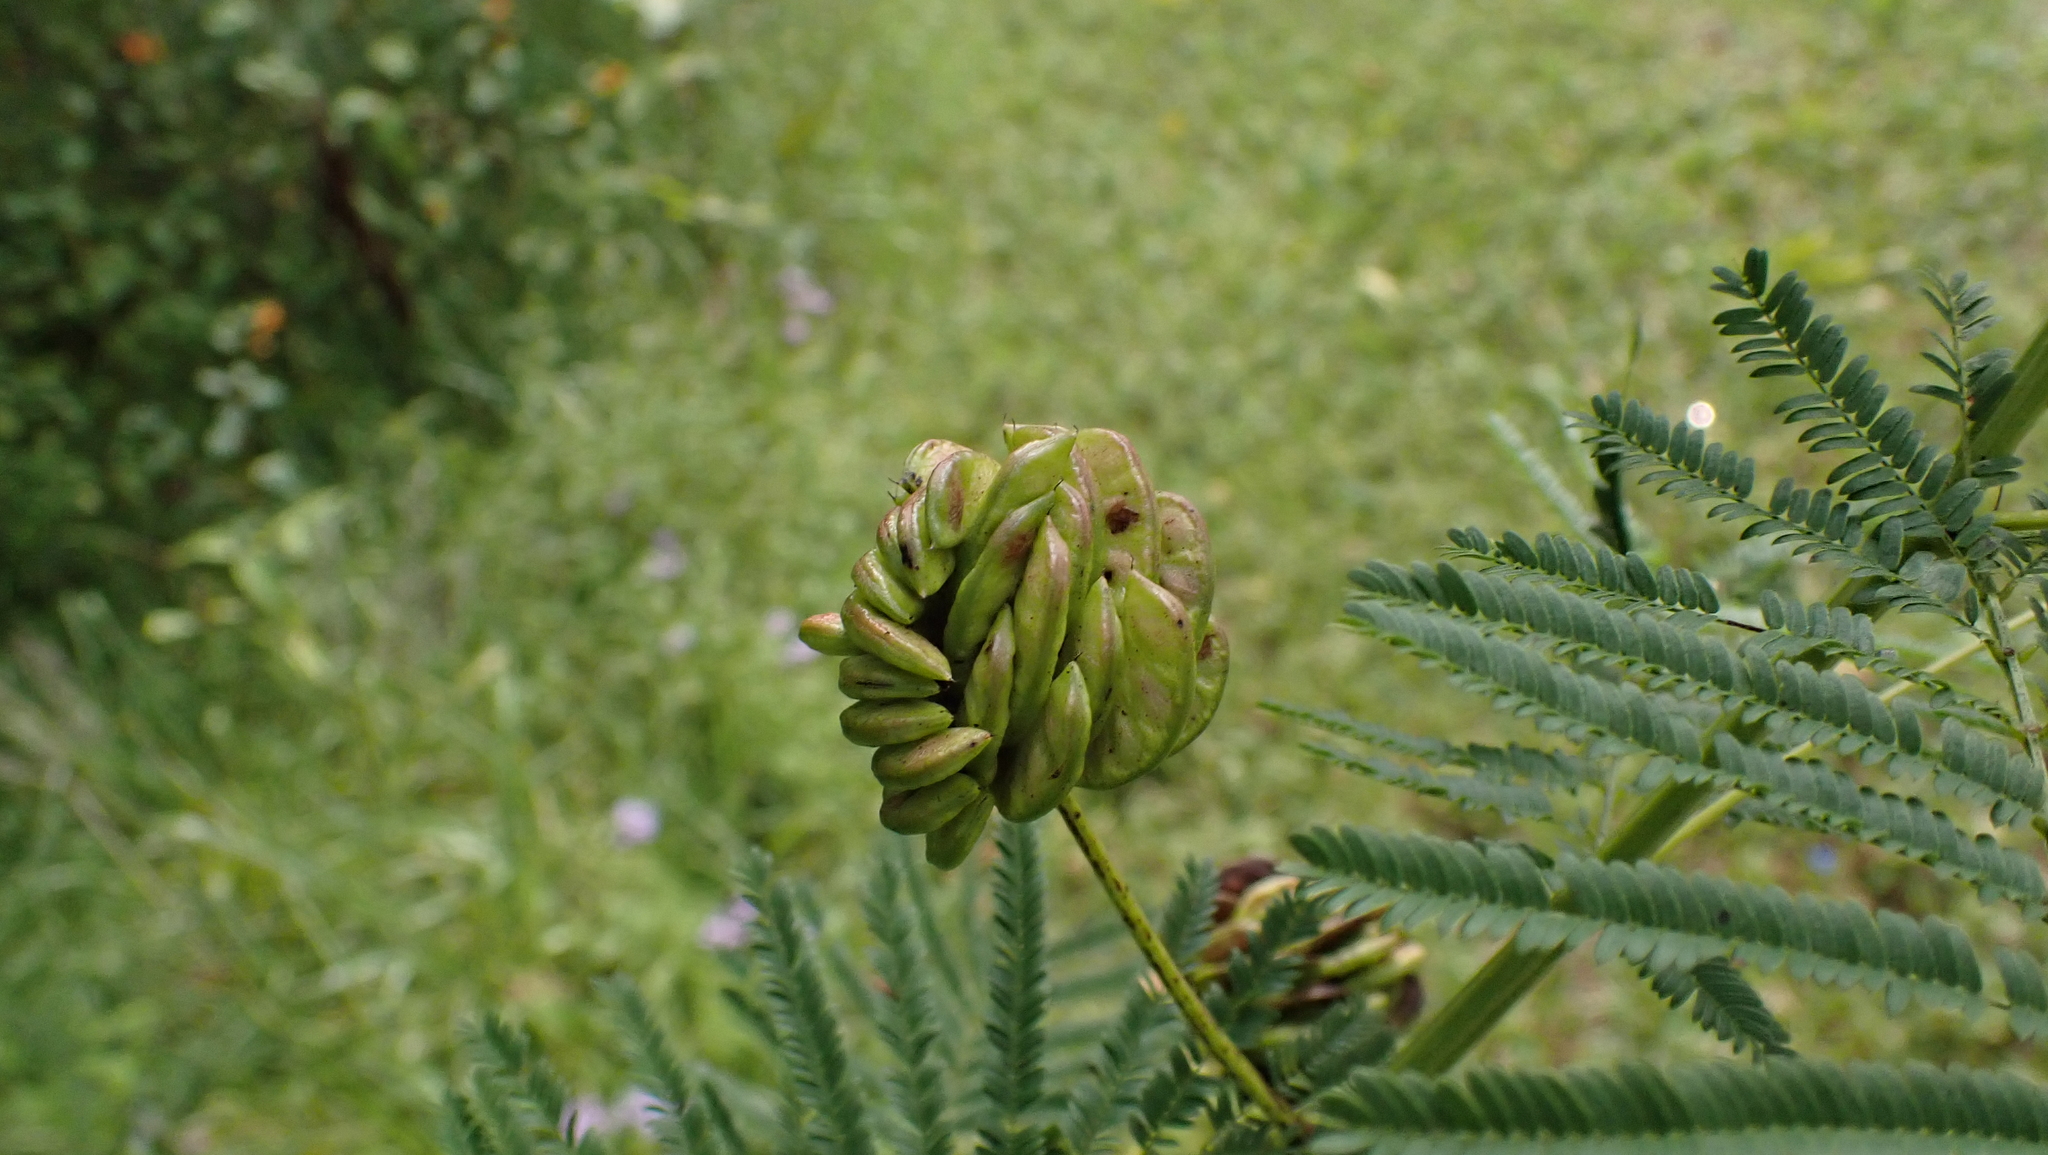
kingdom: Plantae
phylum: Tracheophyta
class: Magnoliopsida
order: Fabales
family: Fabaceae
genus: Desmanthus
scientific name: Desmanthus illinoensis
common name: Illinois bundle-flower
